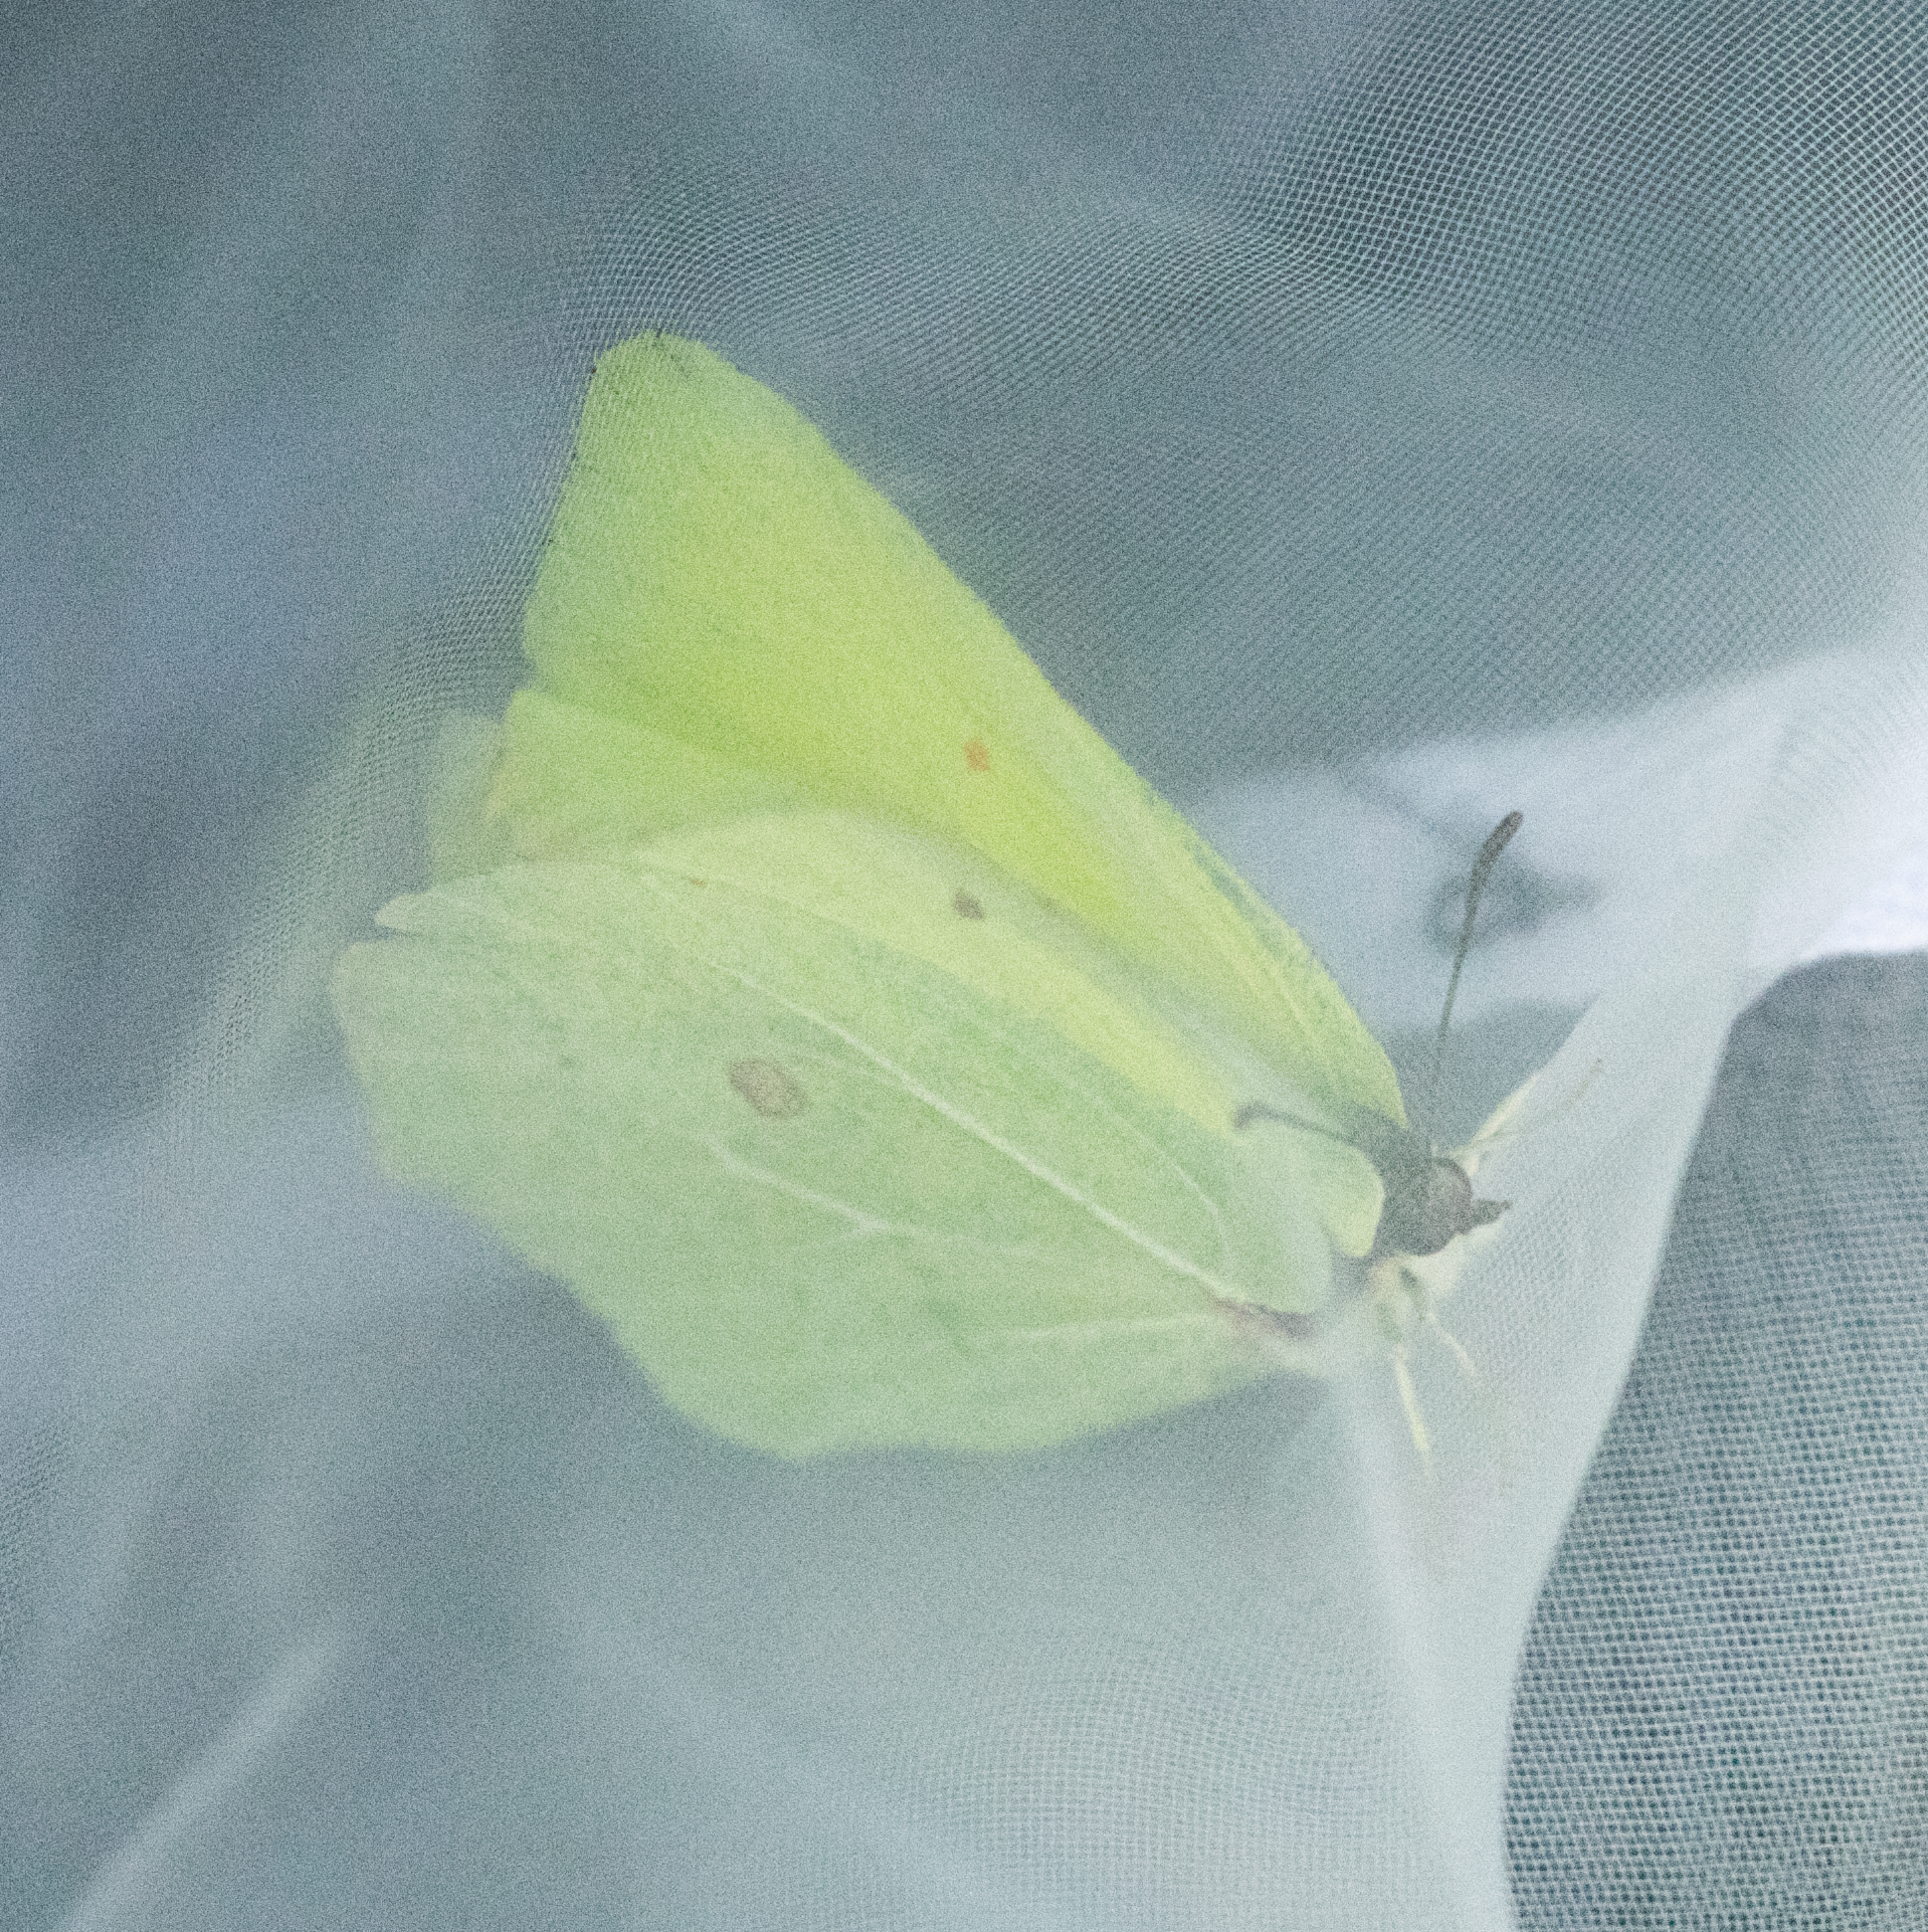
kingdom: Animalia
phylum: Arthropoda
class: Insecta
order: Lepidoptera
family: Pieridae
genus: Gonepteryx
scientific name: Gonepteryx rhamni
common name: Brimstone
